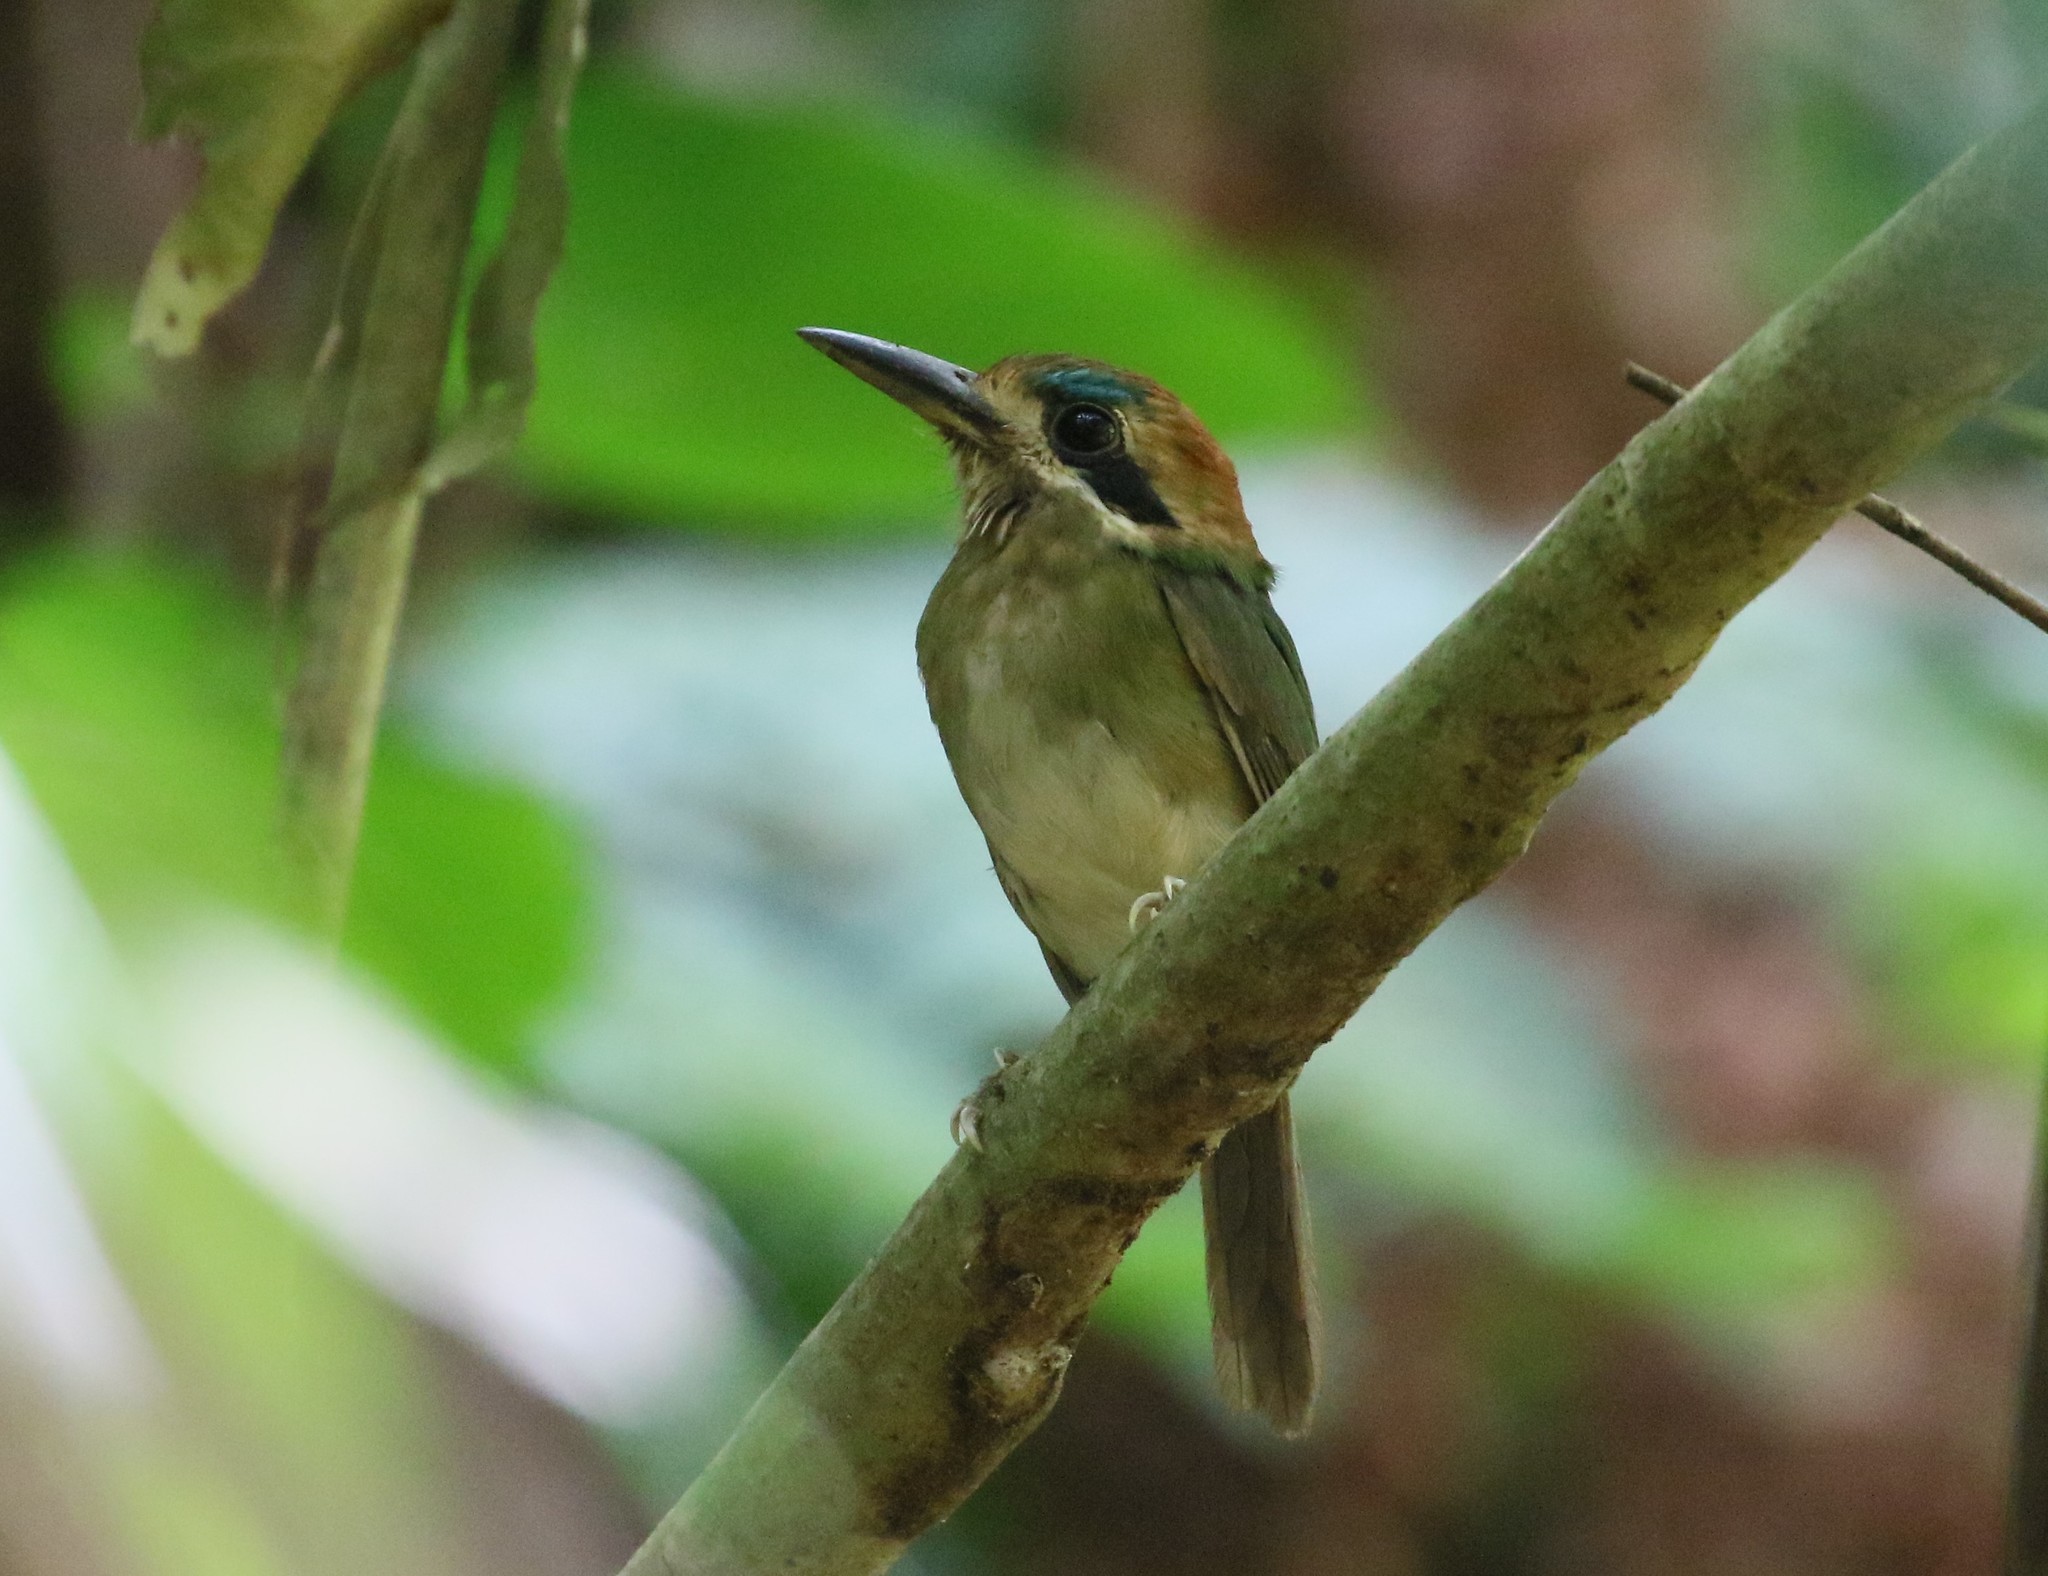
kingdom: Animalia
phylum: Chordata
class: Aves
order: Coraciiformes
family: Momotidae
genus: Hylomanes
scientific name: Hylomanes momotula
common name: Tody motmot
